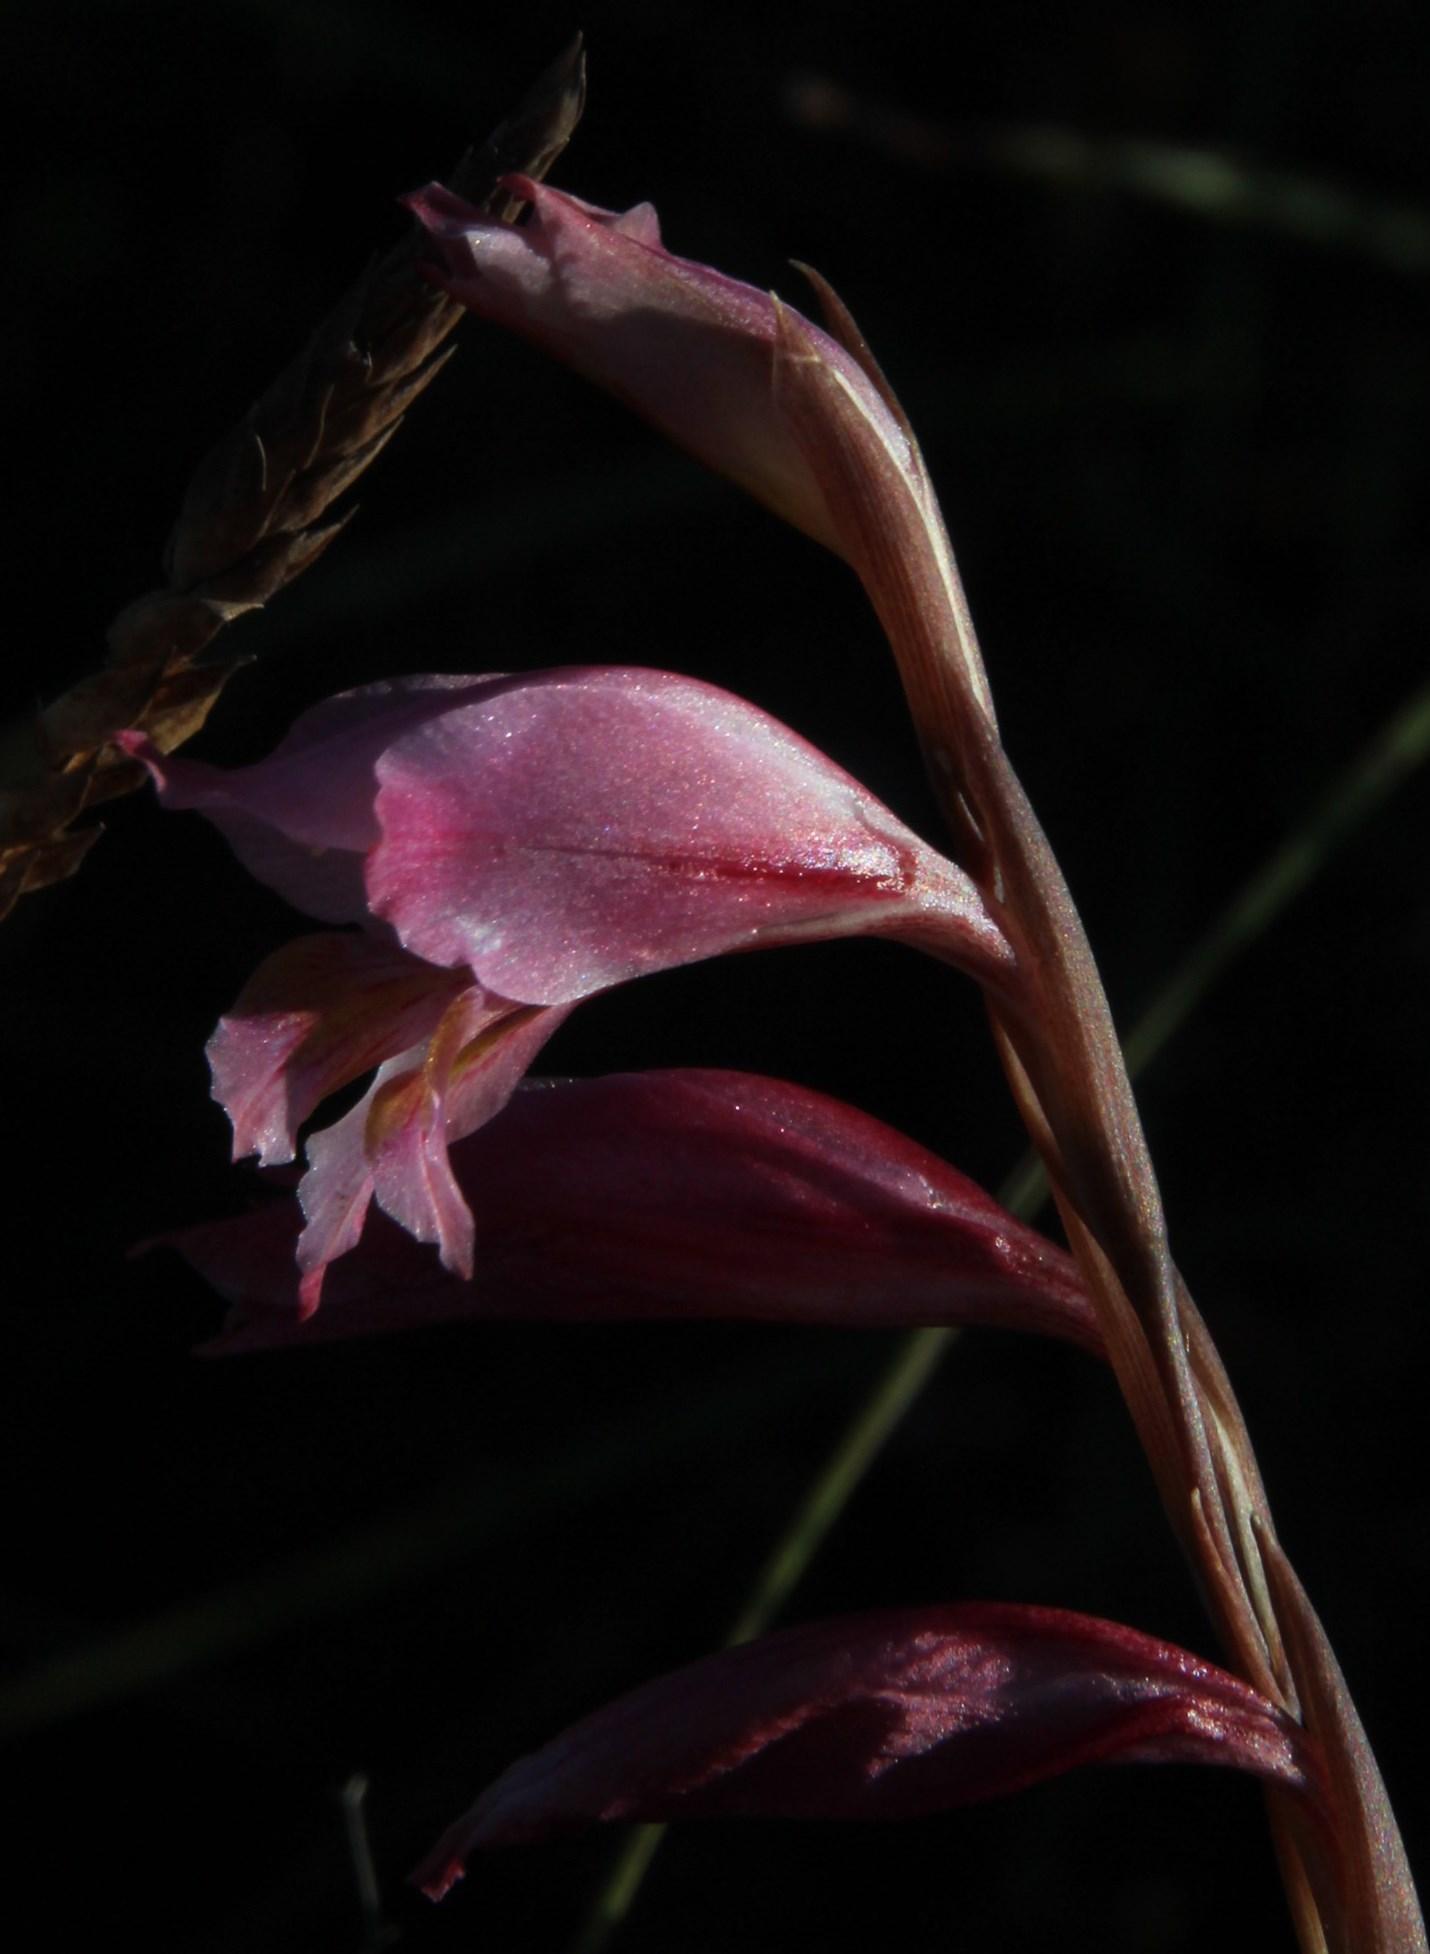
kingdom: Plantae
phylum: Tracheophyta
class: Liliopsida
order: Asparagales
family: Iridaceae
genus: Gladiolus
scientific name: Gladiolus brevifolius
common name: March pypie
